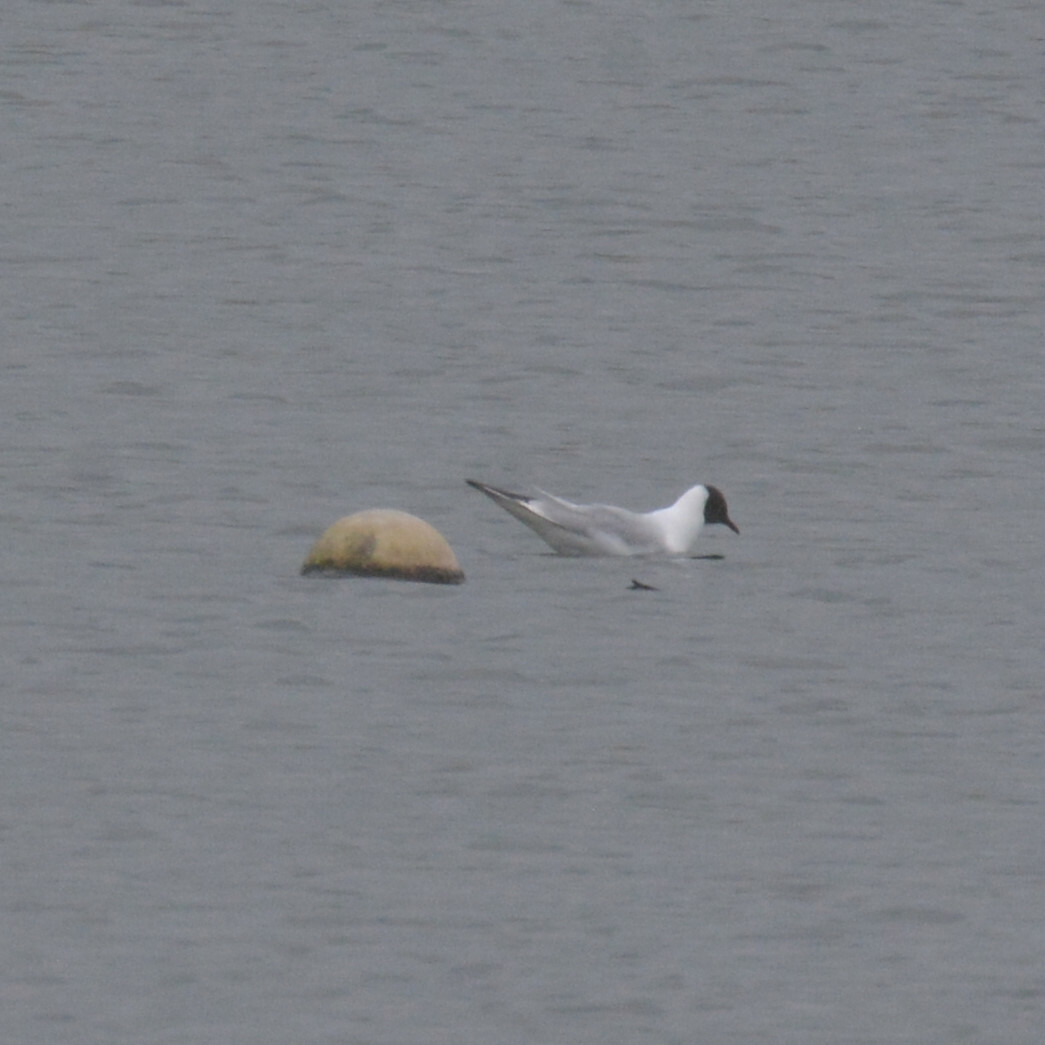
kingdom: Animalia
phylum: Chordata
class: Aves
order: Charadriiformes
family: Laridae
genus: Chroicocephalus
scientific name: Chroicocephalus ridibundus
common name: Black-headed gull
